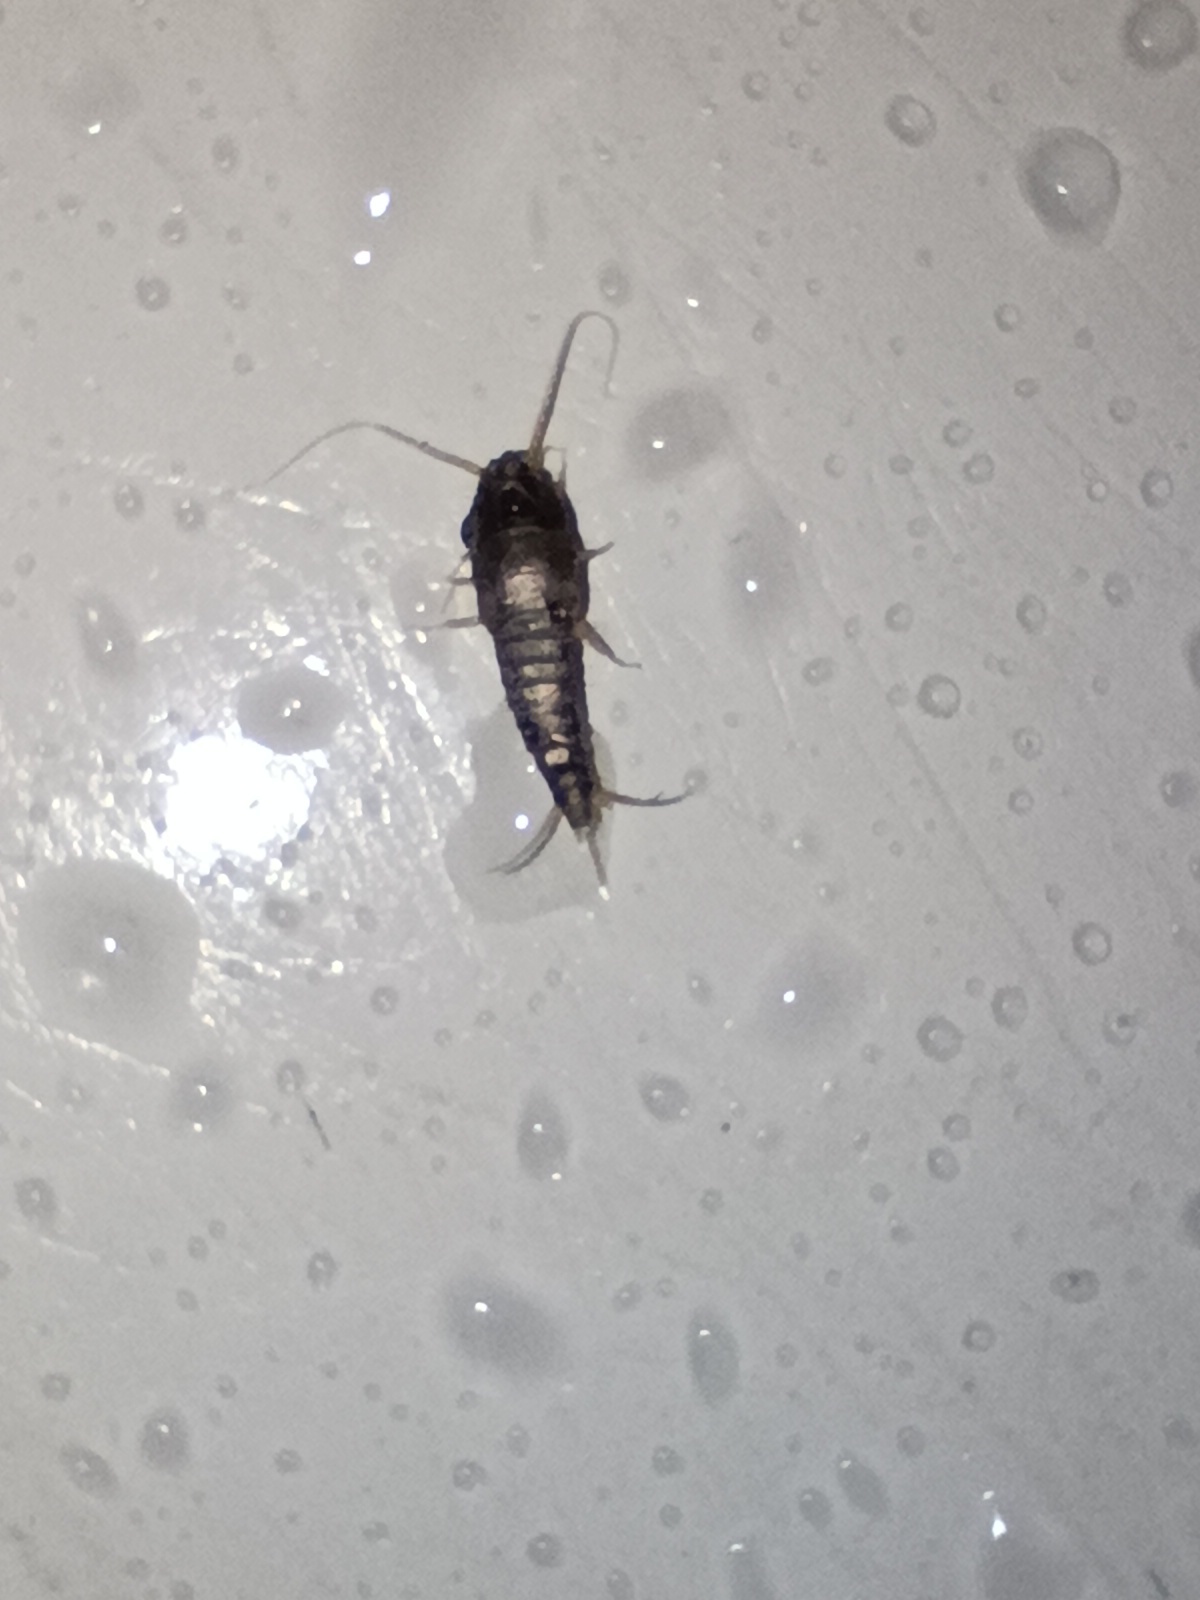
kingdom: Animalia
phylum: Arthropoda
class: Insecta
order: Zygentoma
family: Lepismatidae
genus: Lepisma
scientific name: Lepisma saccharinum
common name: Silverfish
